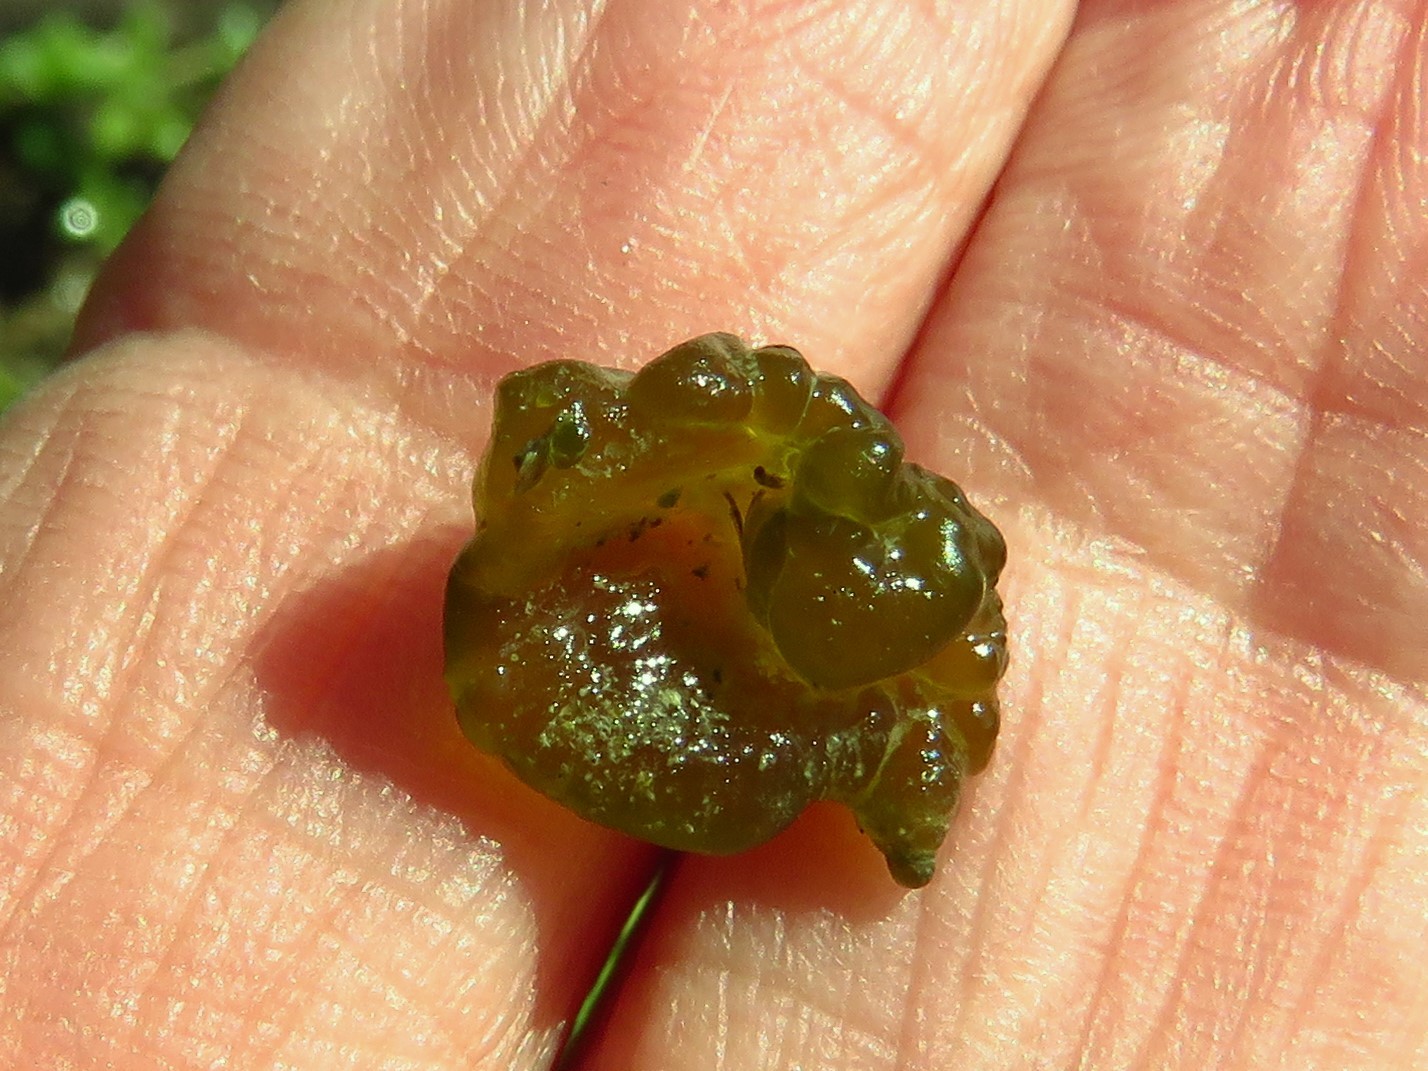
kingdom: Bacteria
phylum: Cyanobacteria
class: Cyanobacteriia
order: Cyanobacteriales
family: Nostocaceae
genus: Nostoc
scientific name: Nostoc commune
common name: Star jelly
